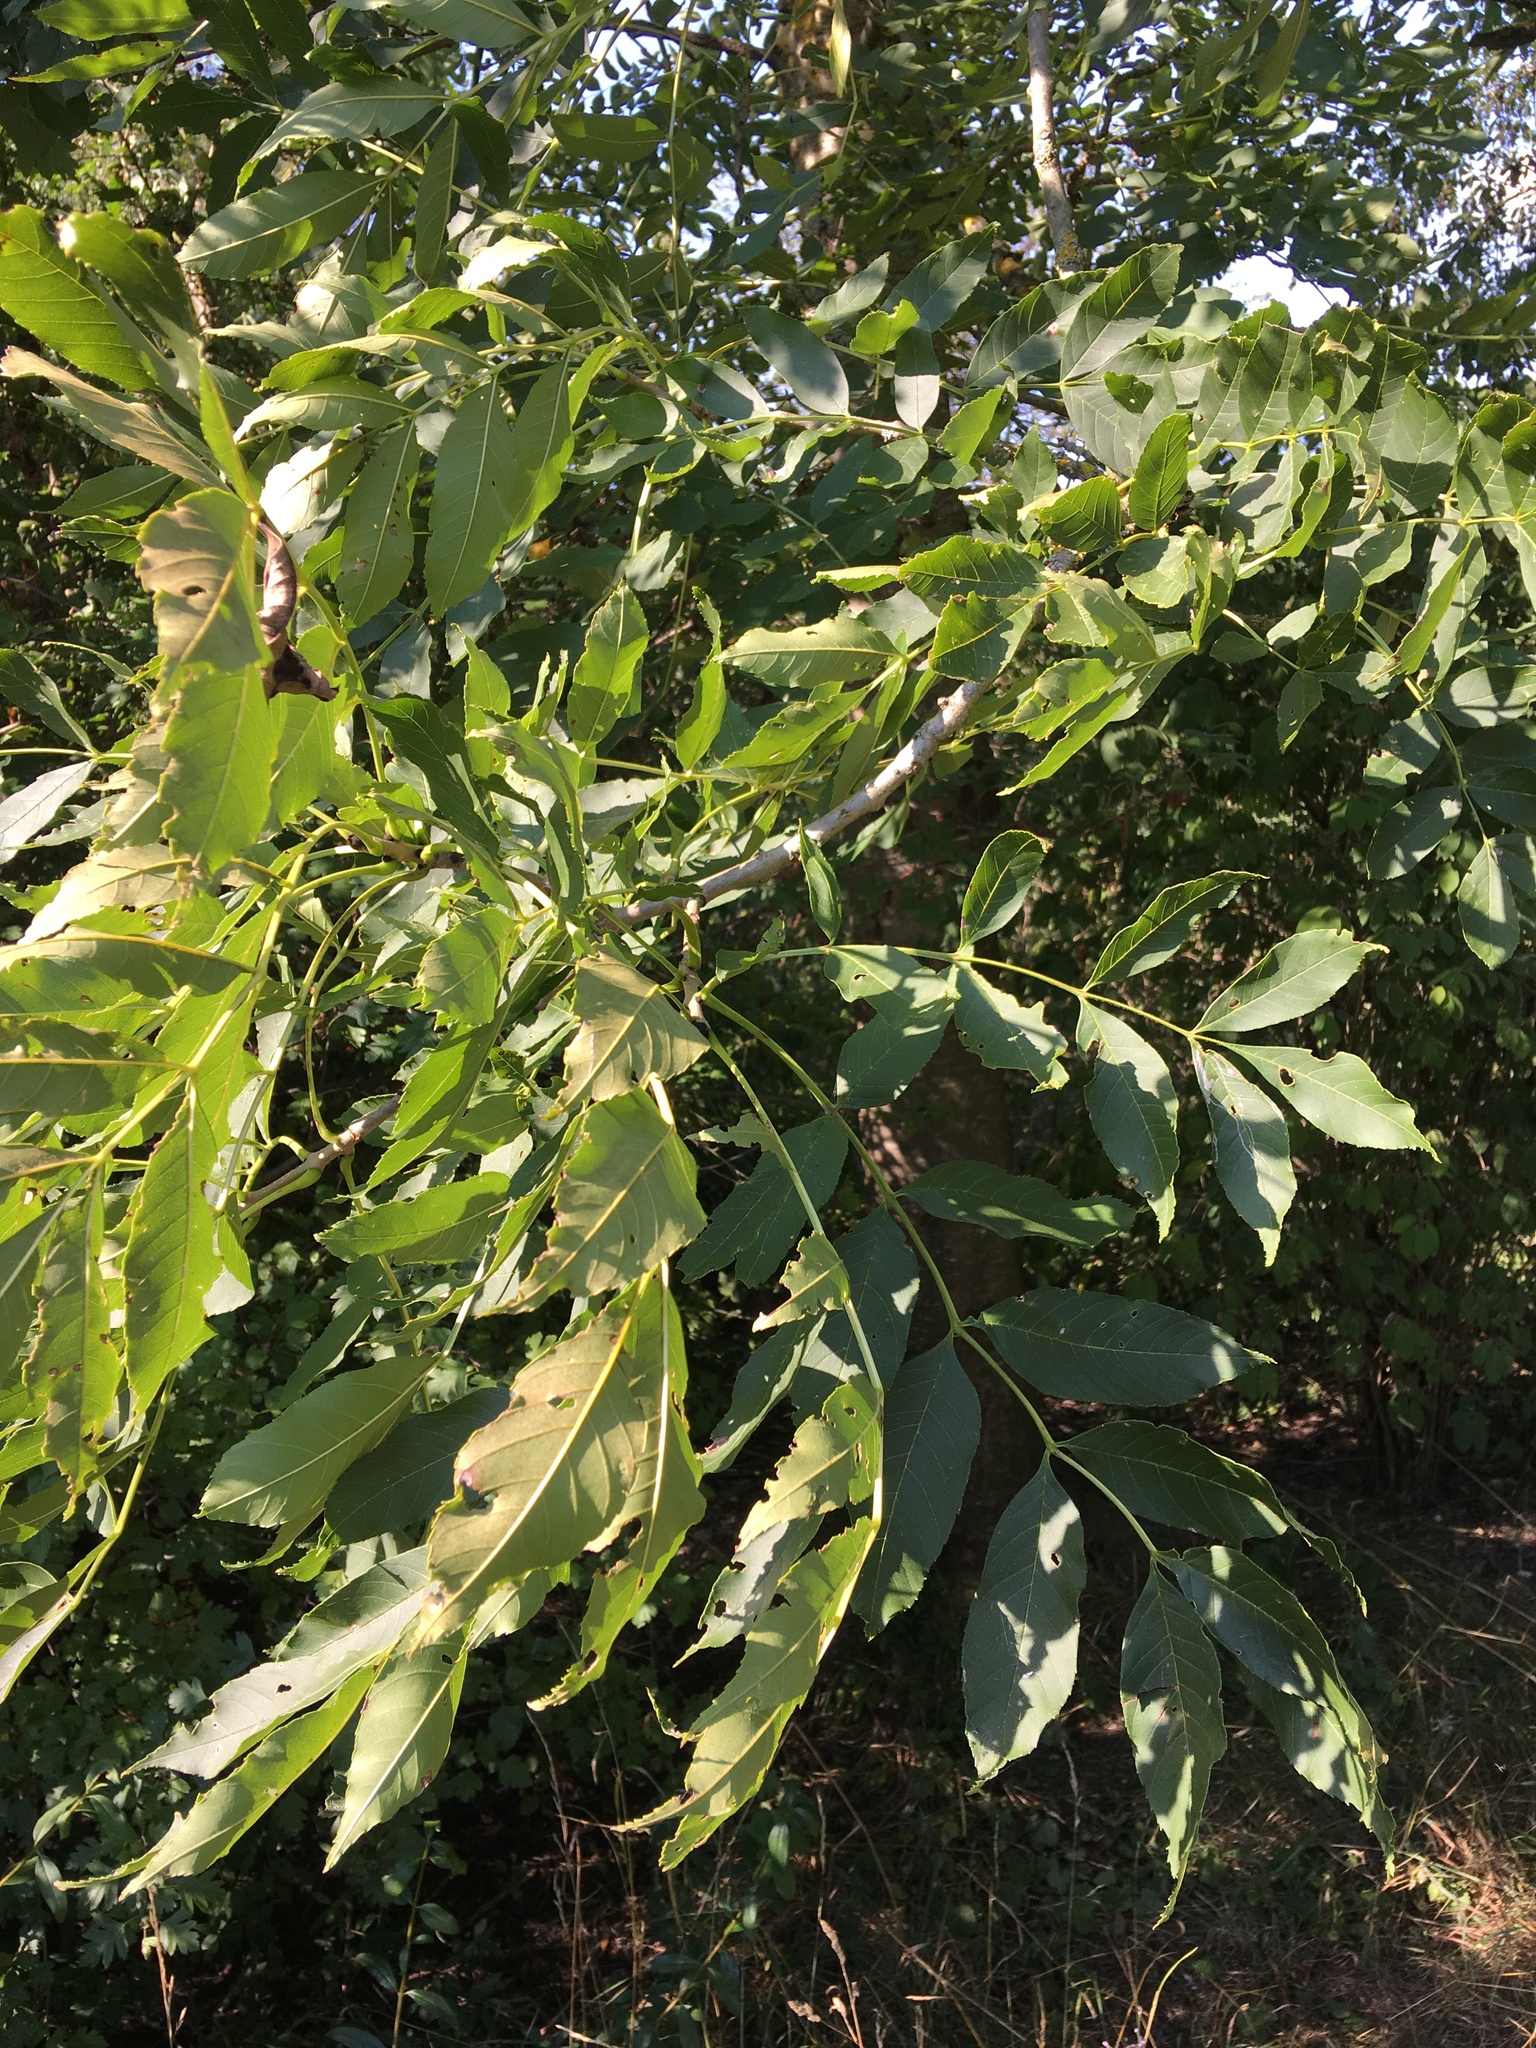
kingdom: Plantae
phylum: Tracheophyta
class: Magnoliopsida
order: Lamiales
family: Oleaceae
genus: Fraxinus
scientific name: Fraxinus excelsior
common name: European ash
